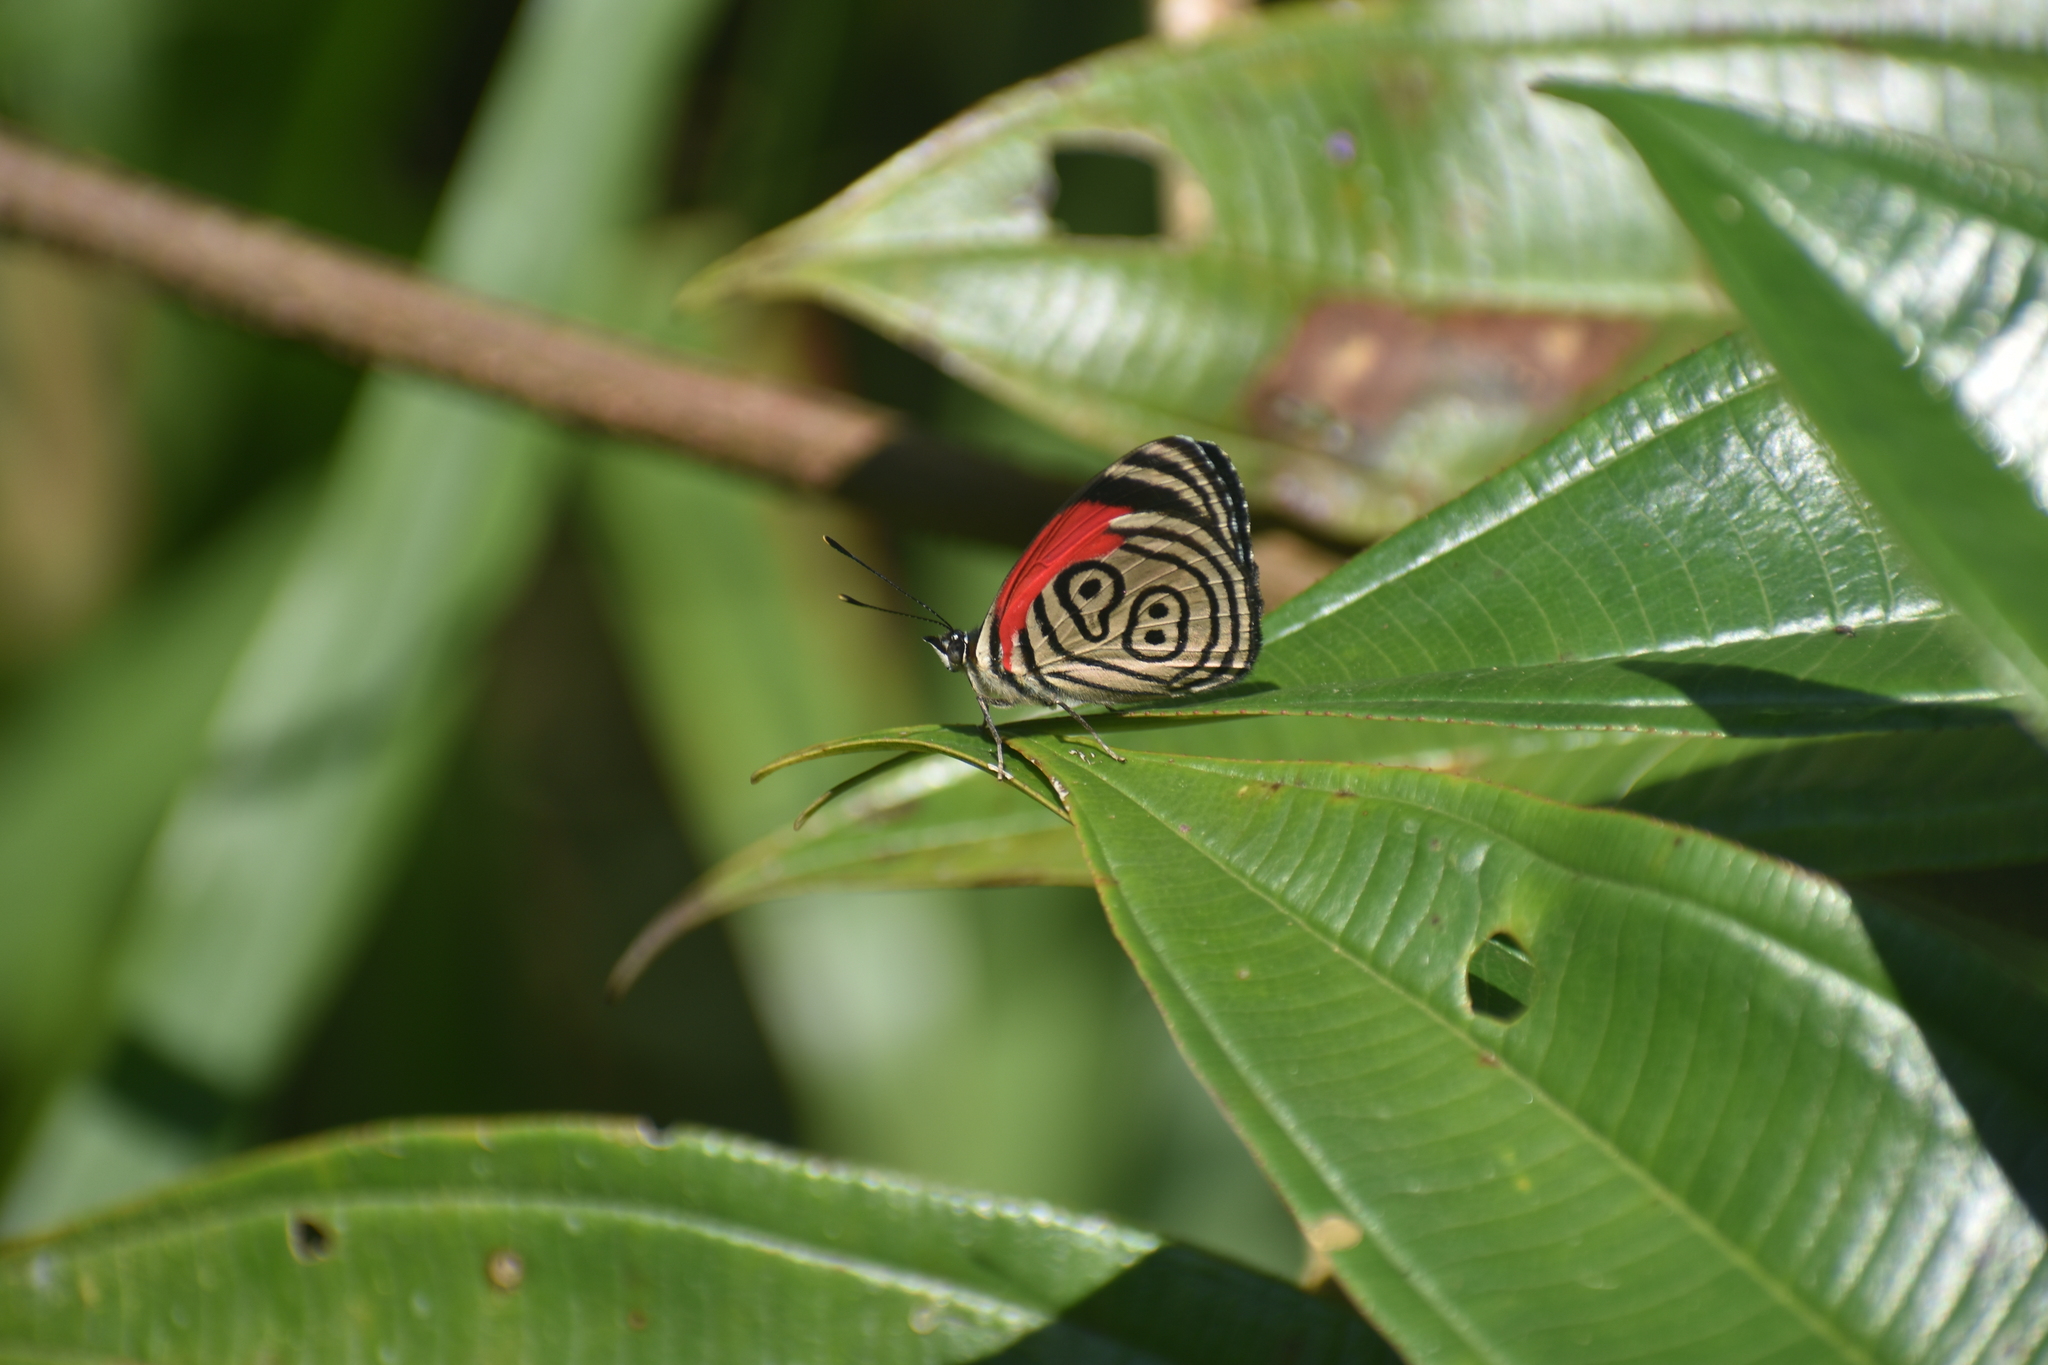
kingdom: Animalia
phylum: Arthropoda
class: Insecta
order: Lepidoptera
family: Nymphalidae
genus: Diaethria
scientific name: Diaethria euclides
